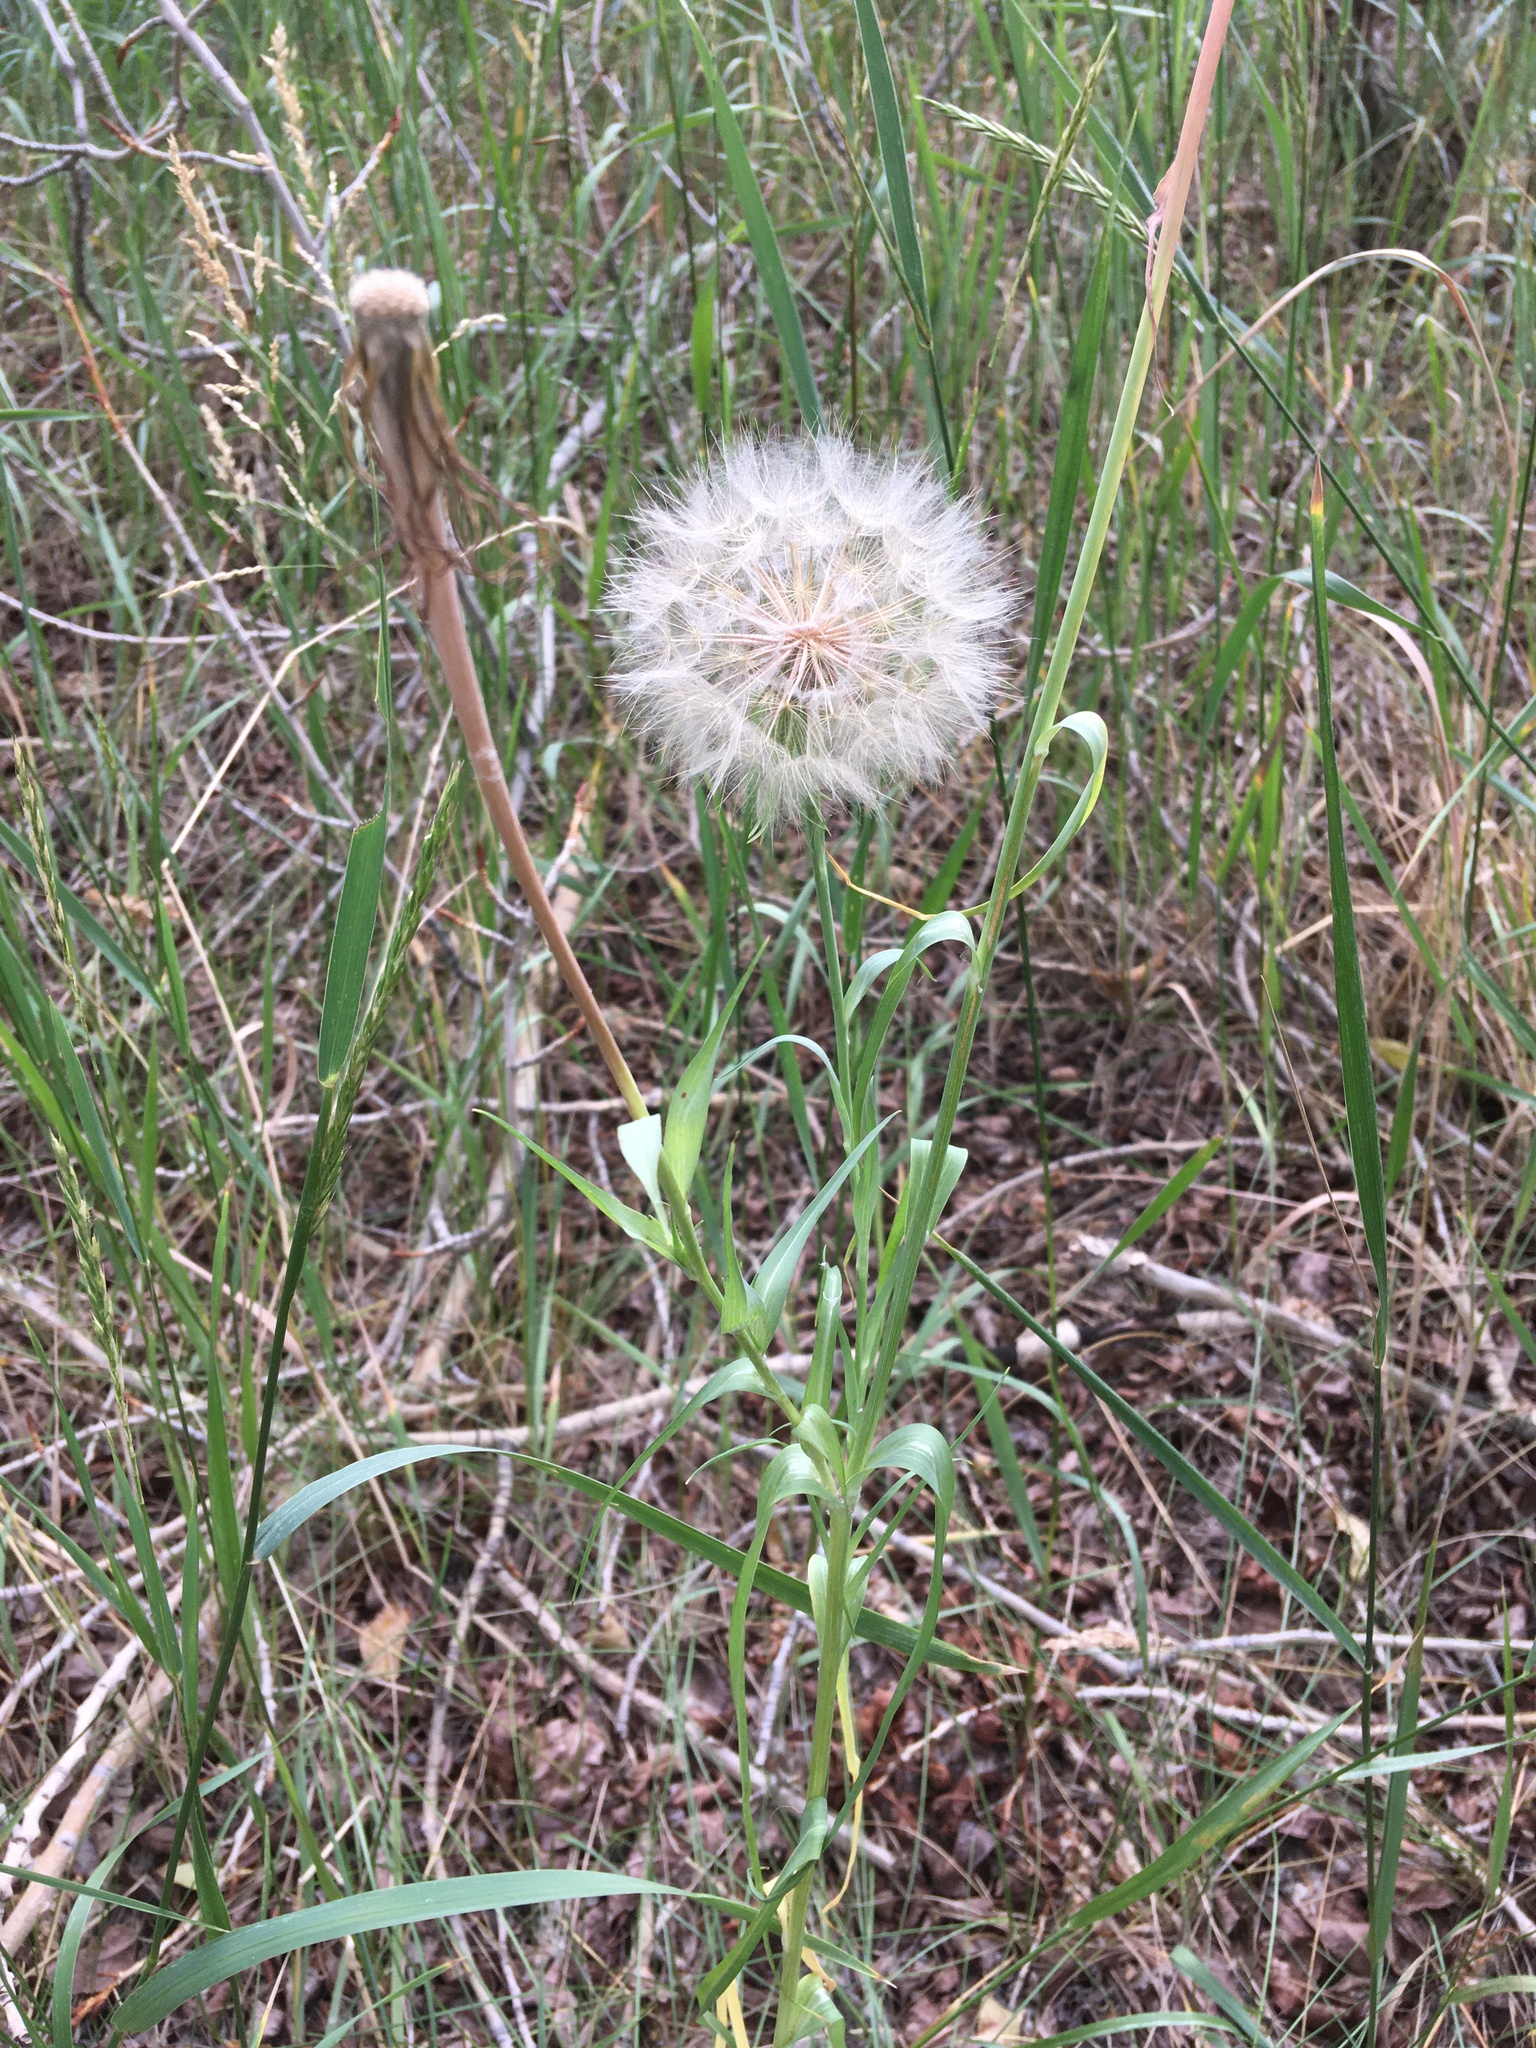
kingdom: Plantae
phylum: Tracheophyta
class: Magnoliopsida
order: Asterales
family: Asteraceae
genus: Tragopogon
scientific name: Tragopogon dubius
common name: Yellow salsify
